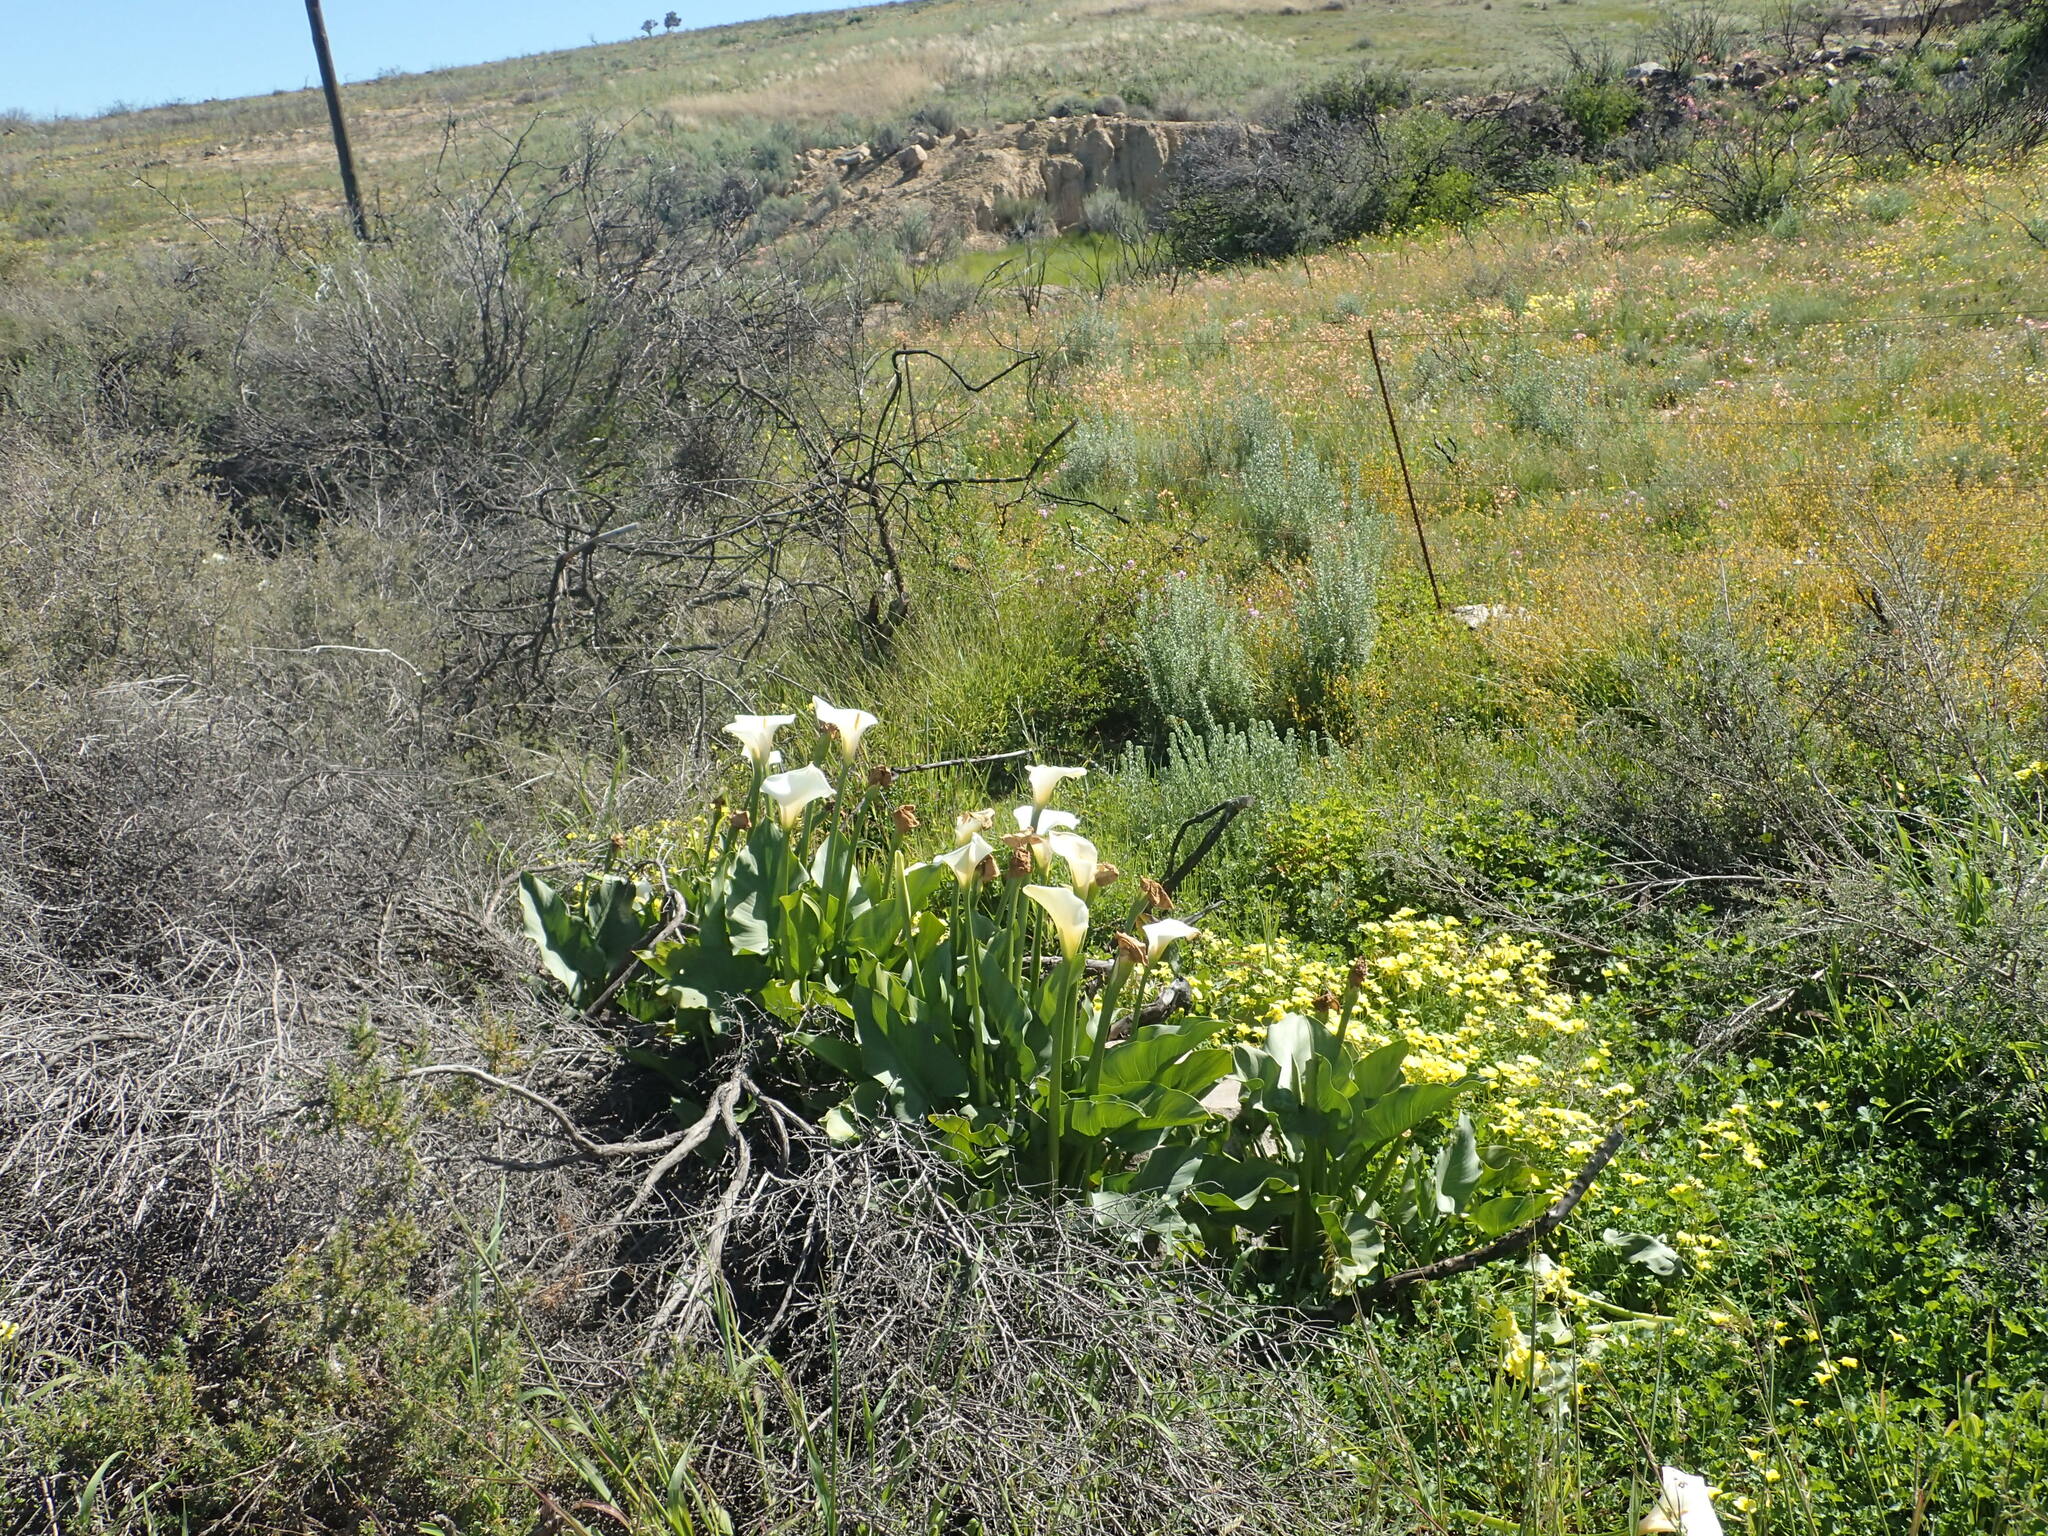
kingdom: Plantae
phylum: Tracheophyta
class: Liliopsida
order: Alismatales
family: Araceae
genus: Zantedeschia
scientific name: Zantedeschia aethiopica
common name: Altar-lily
